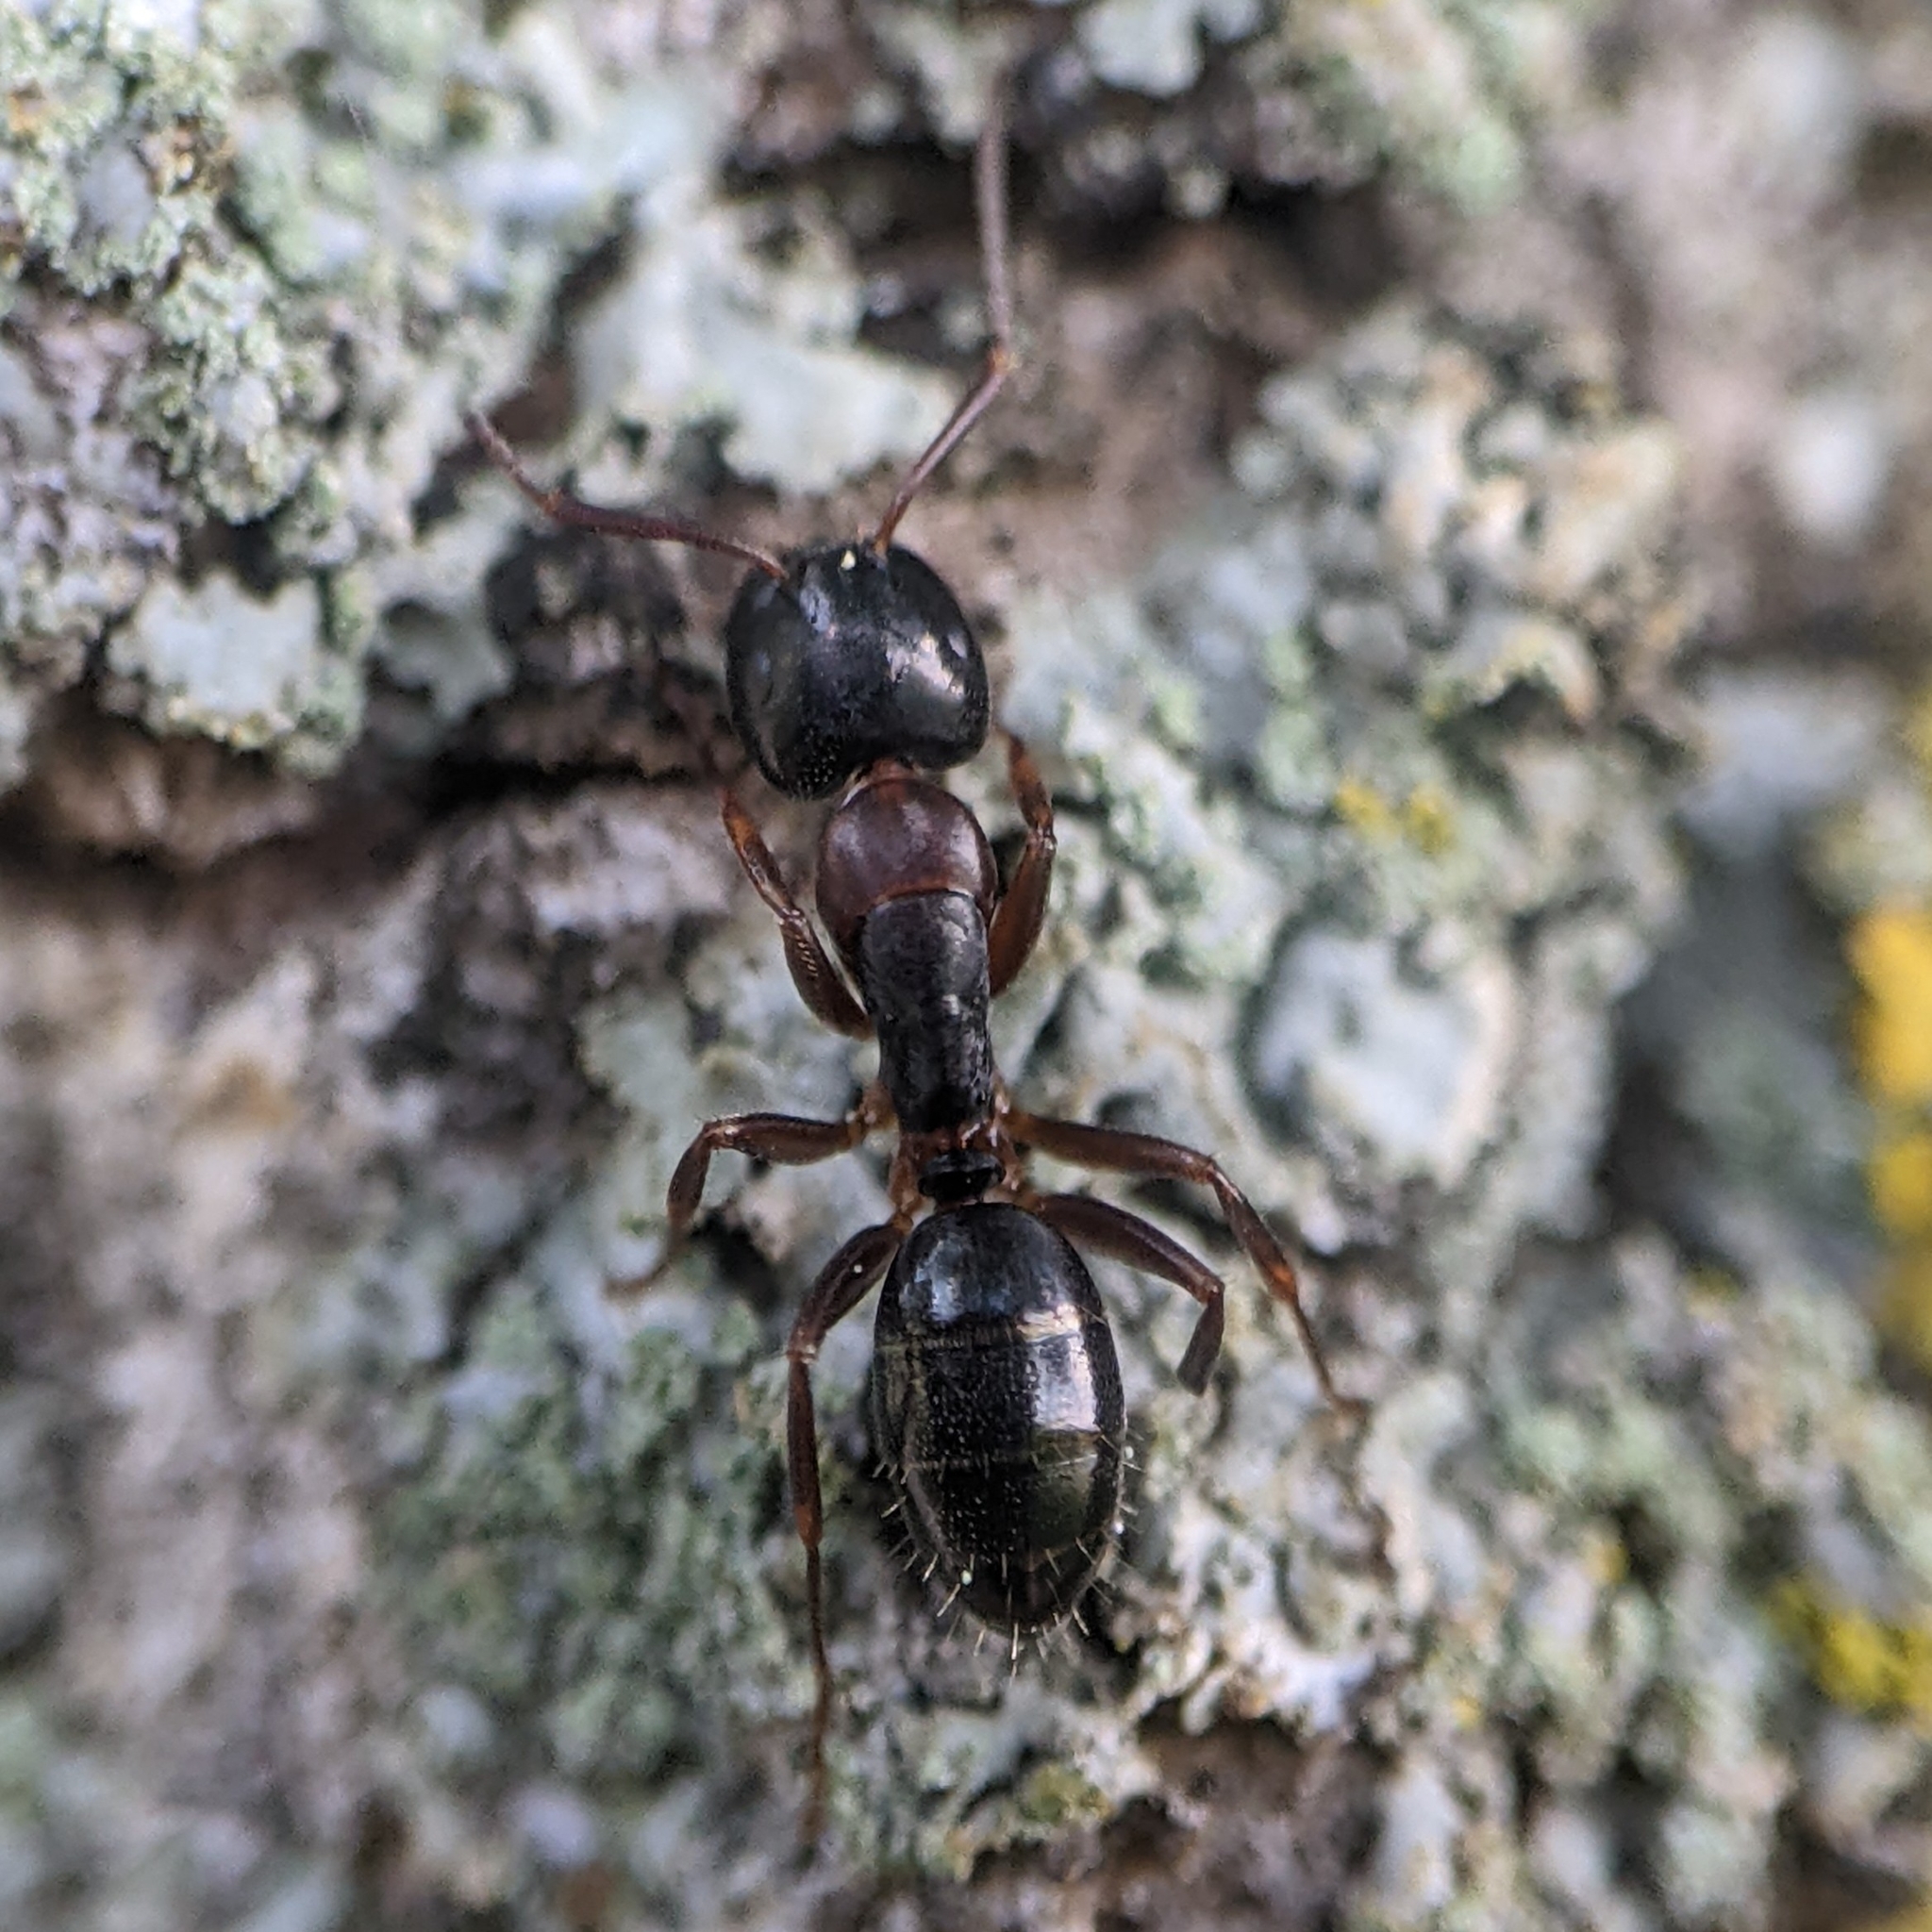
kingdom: Animalia
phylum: Arthropoda
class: Insecta
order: Hymenoptera
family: Formicidae
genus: Camponotus
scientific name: Camponotus nearcticus
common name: Smaller carpenter ant
